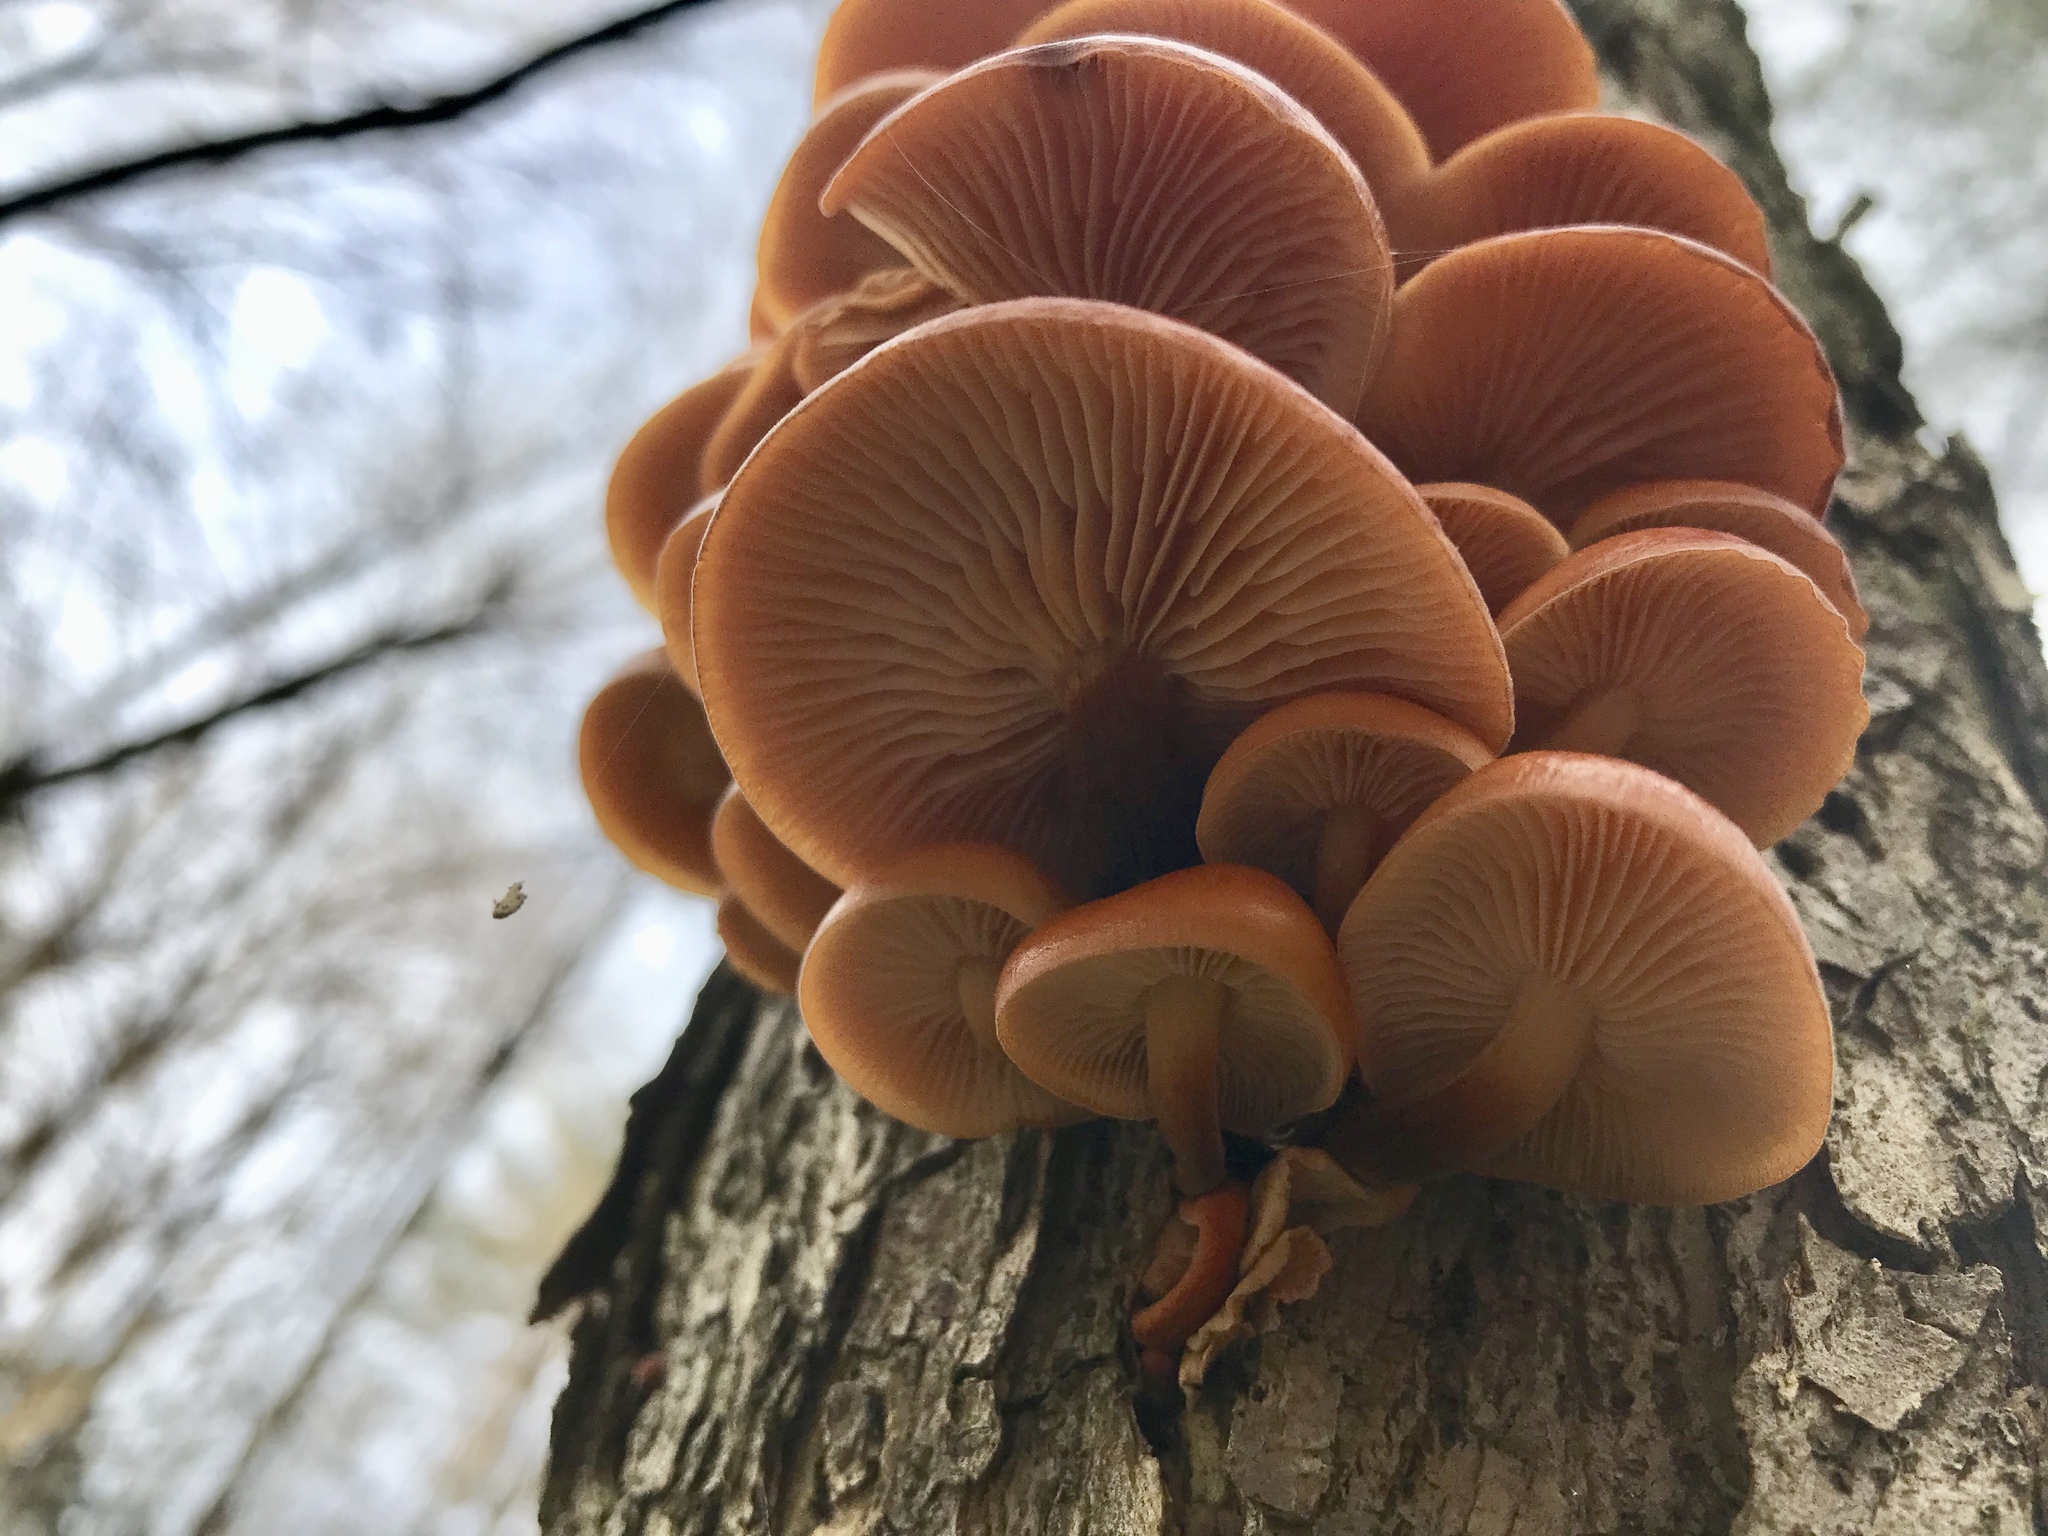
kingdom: Fungi
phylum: Basidiomycota
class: Agaricomycetes
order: Agaricales
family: Physalacriaceae
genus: Flammulina
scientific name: Flammulina velutipes
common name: Velvet shank
